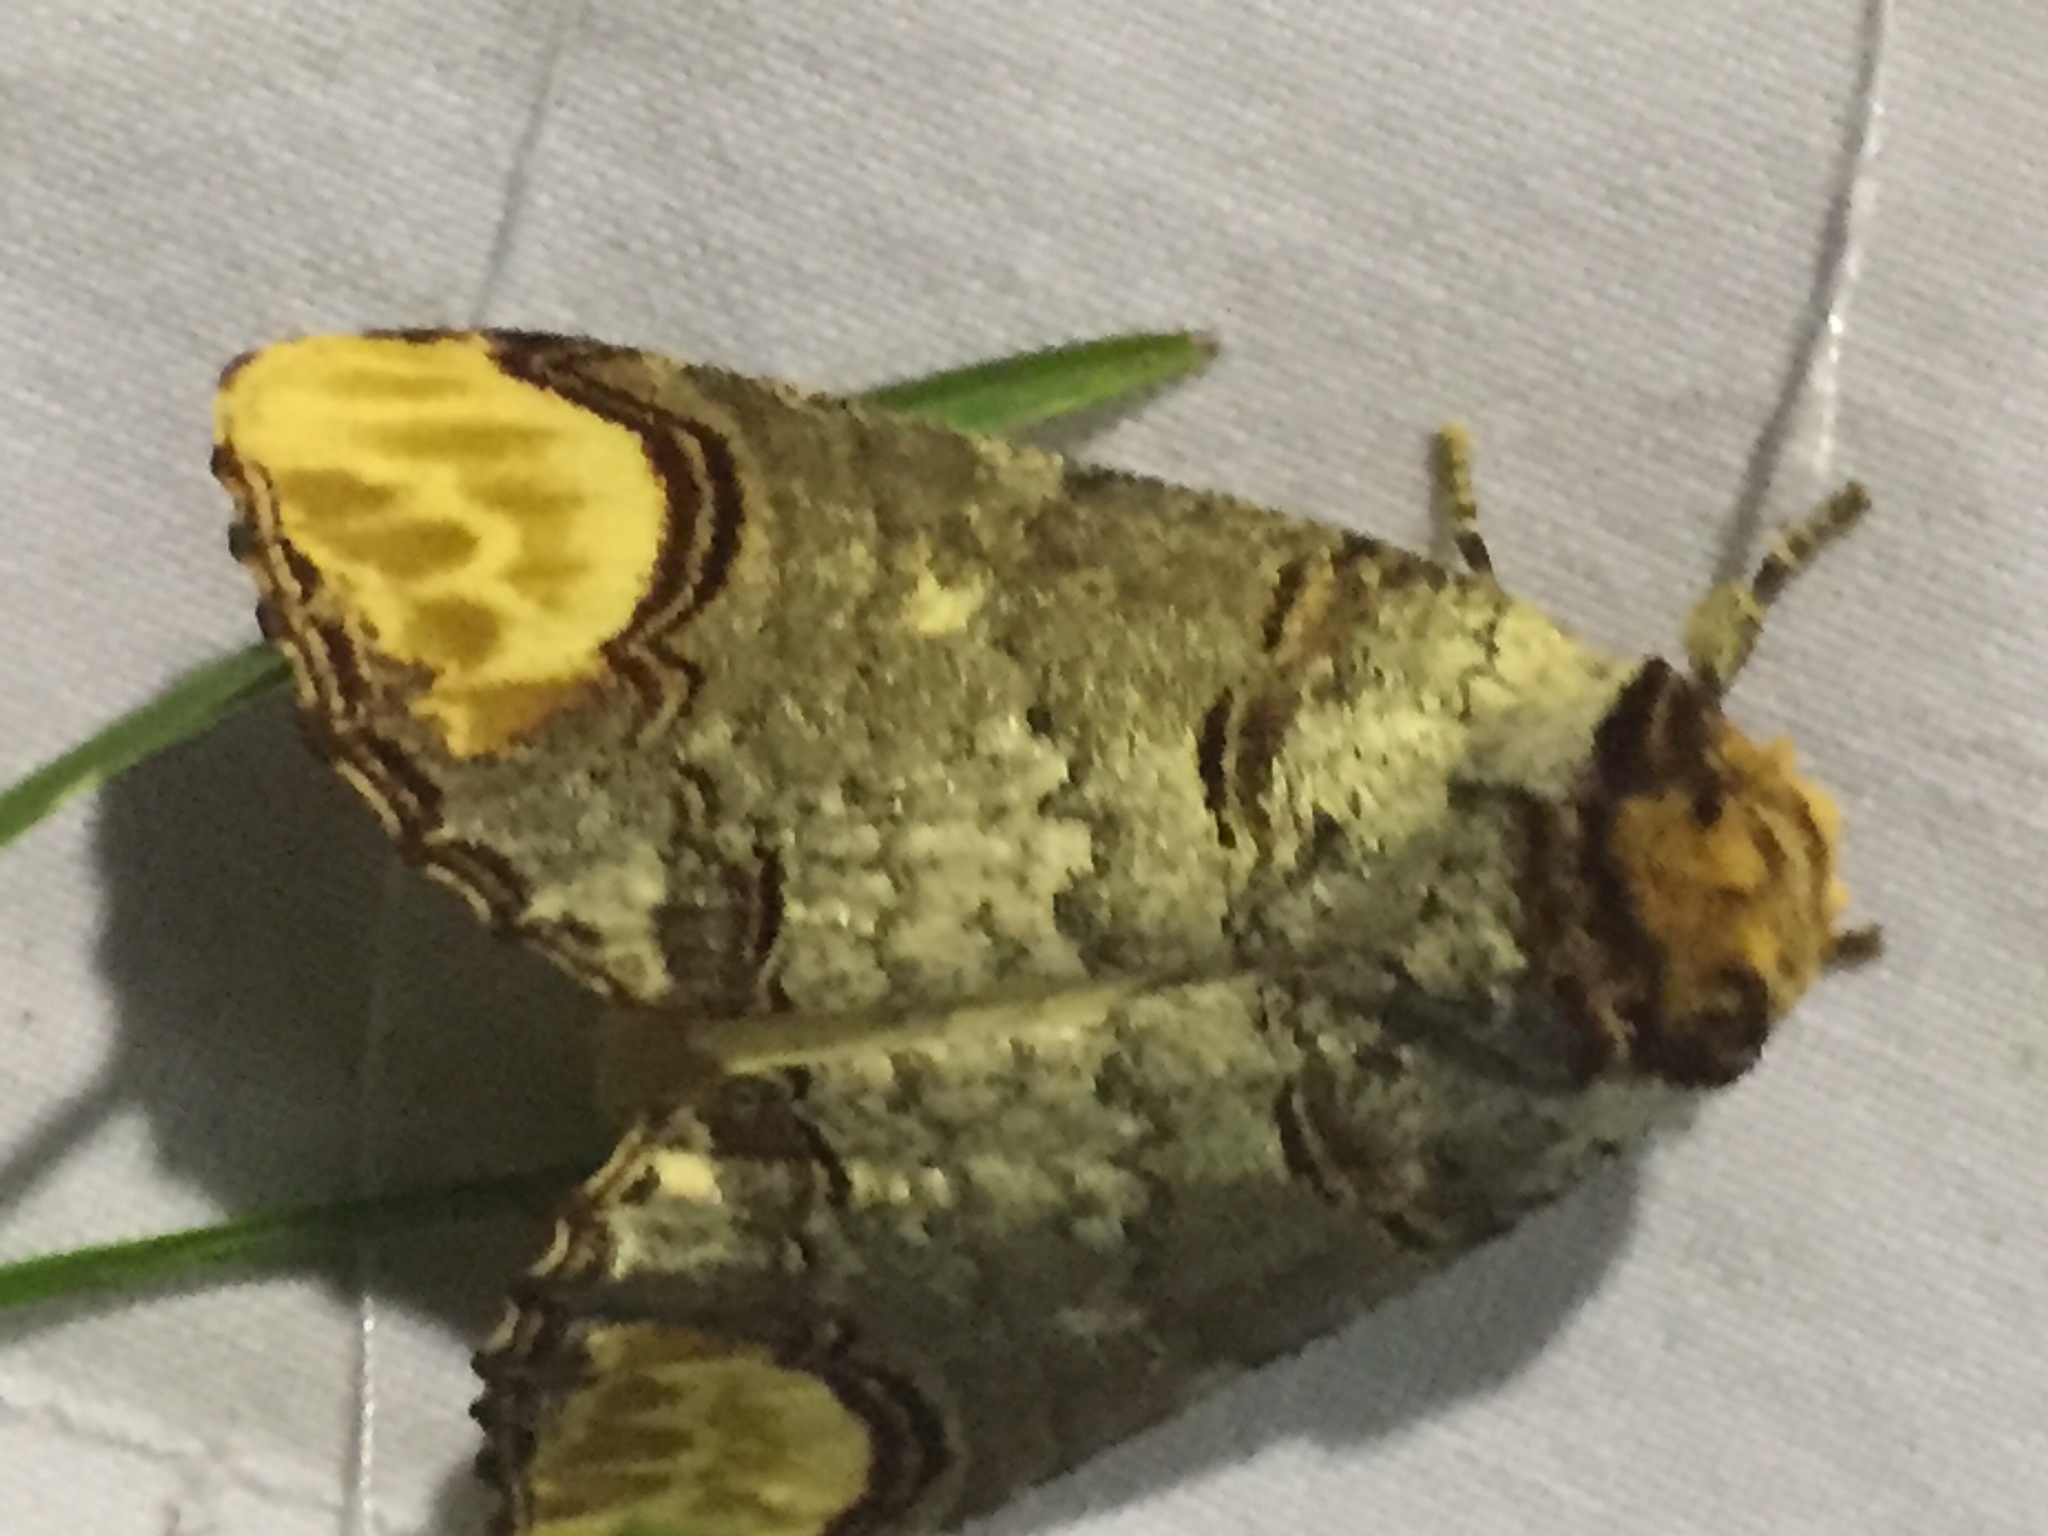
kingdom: Animalia
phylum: Arthropoda
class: Insecta
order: Lepidoptera
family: Notodontidae
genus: Phalera
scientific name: Phalera bucephala
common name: Buff-tip
